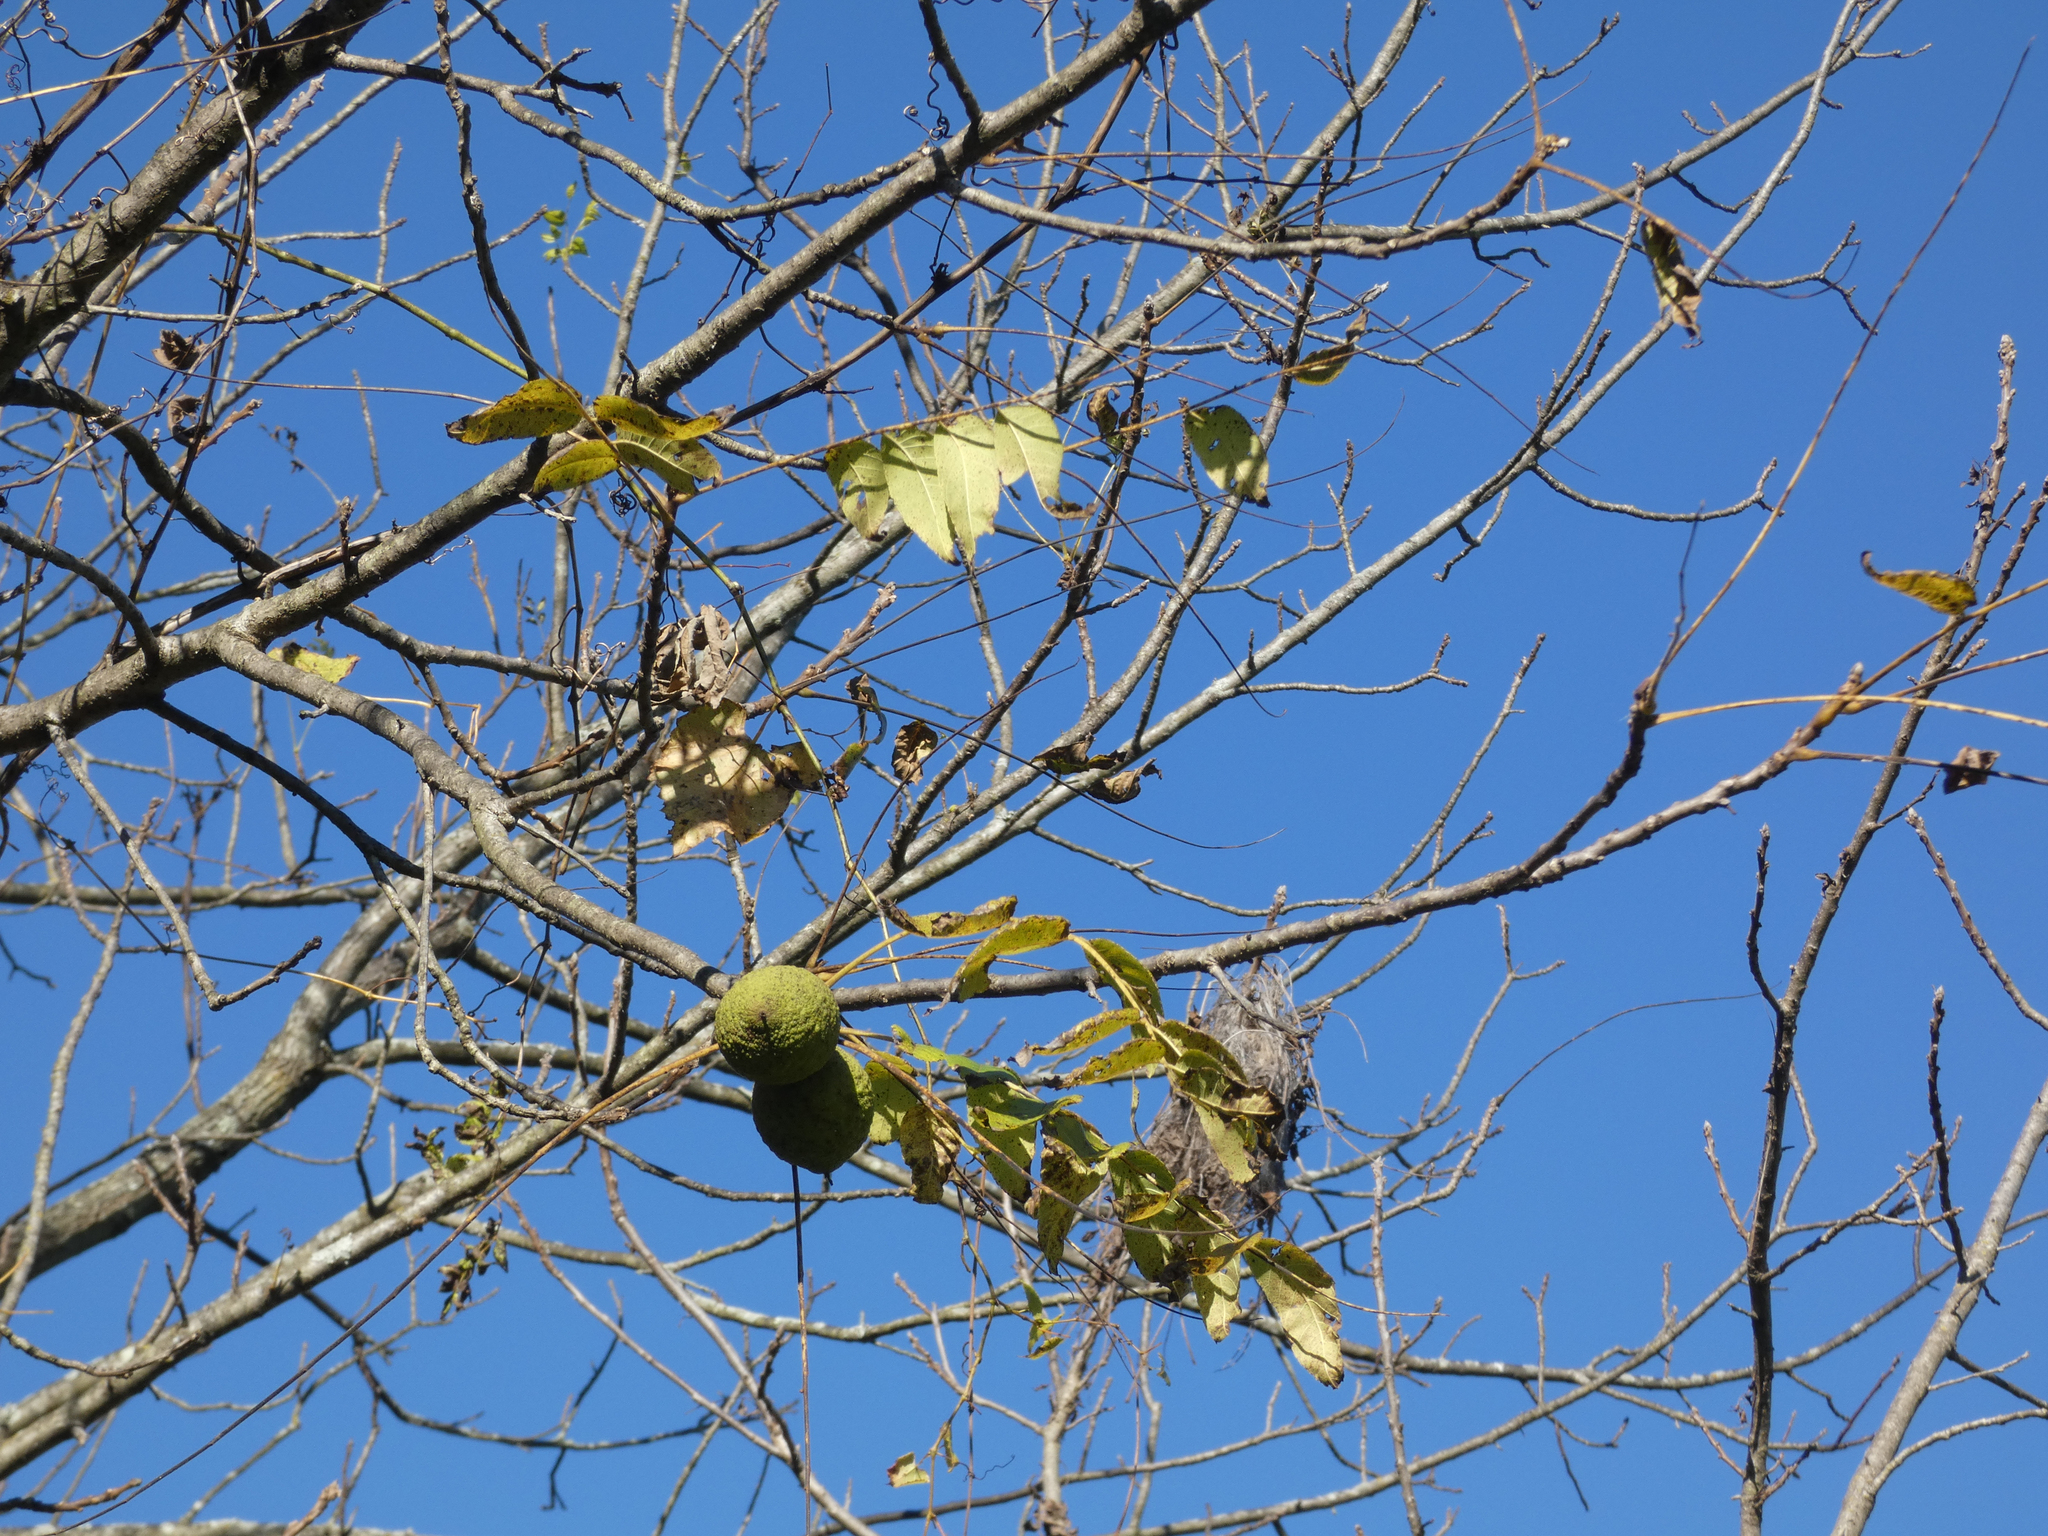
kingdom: Plantae
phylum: Tracheophyta
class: Magnoliopsida
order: Fagales
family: Juglandaceae
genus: Juglans
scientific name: Juglans nigra
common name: Black walnut
